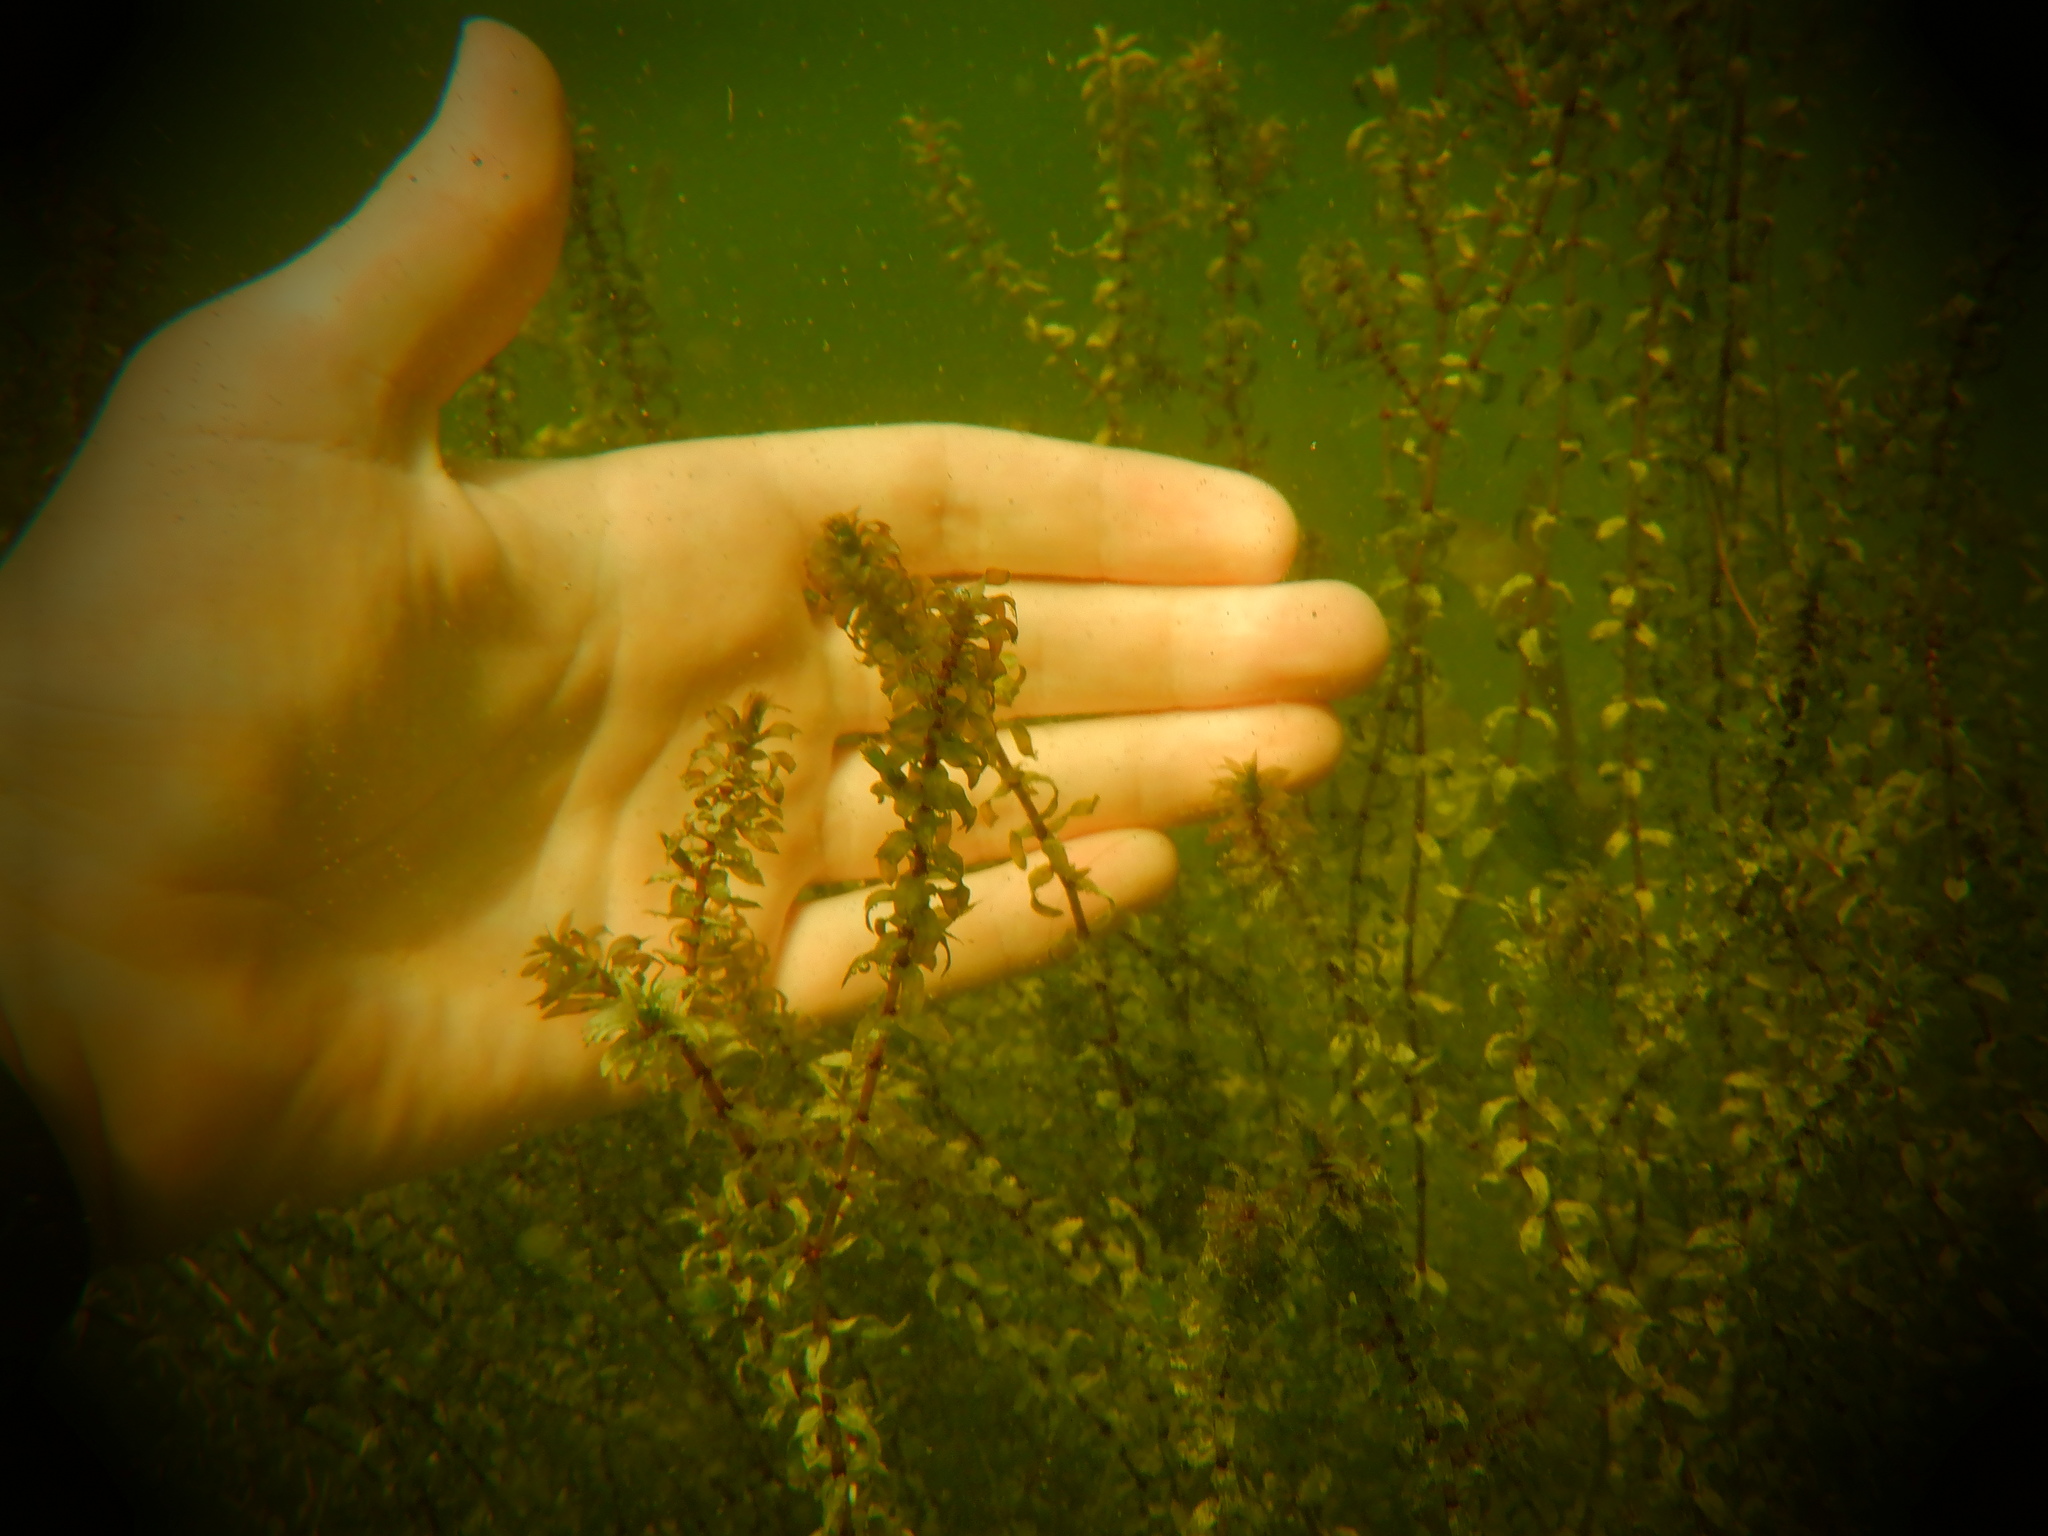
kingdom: Plantae
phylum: Tracheophyta
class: Liliopsida
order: Alismatales
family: Hydrocharitaceae
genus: Elodea
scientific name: Elodea canadensis
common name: Canadian waterweed
